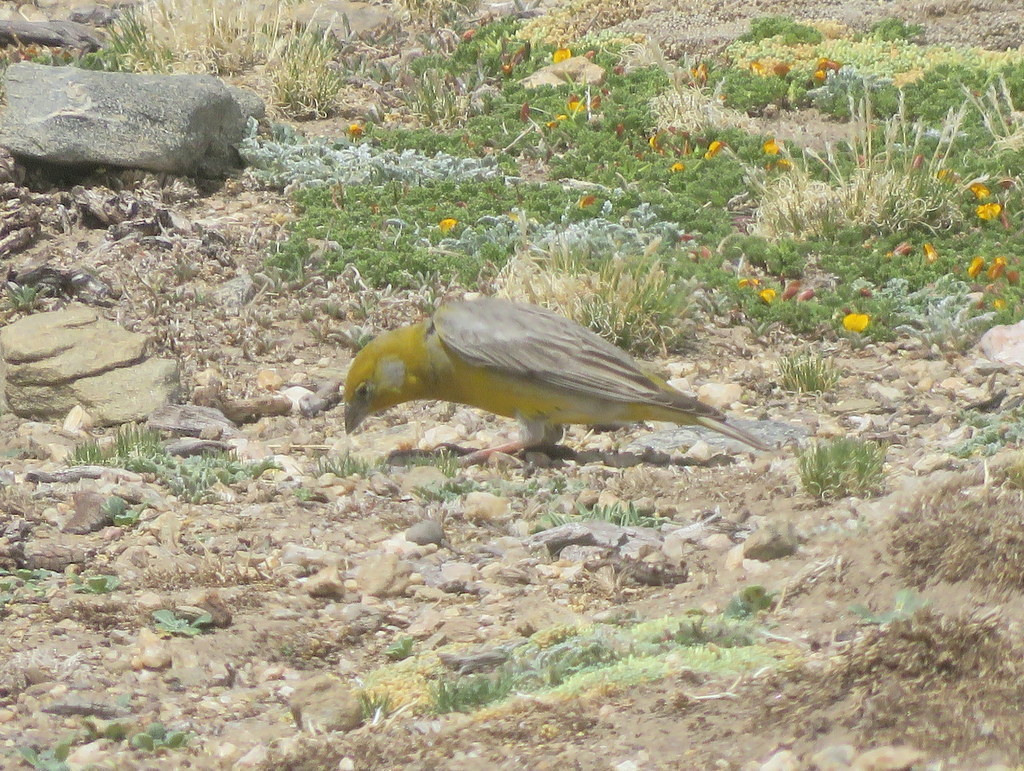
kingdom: Animalia
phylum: Chordata
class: Aves
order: Passeriformes
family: Thraupidae
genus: Sicalis
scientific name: Sicalis uropigyalis
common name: Bright-rumped yellow finch
